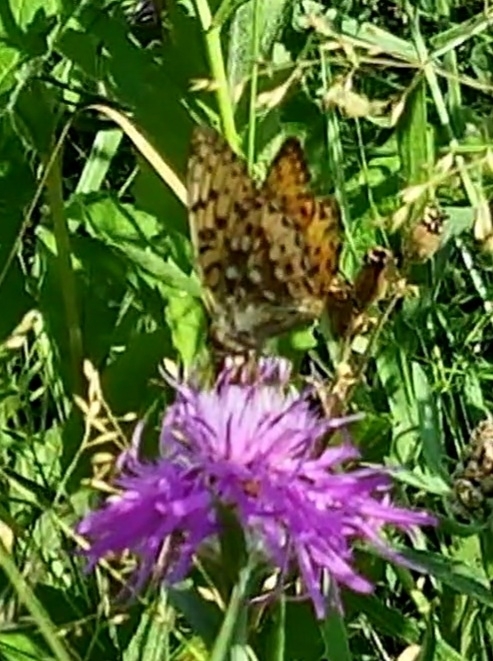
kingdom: Animalia
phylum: Arthropoda
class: Insecta
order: Lepidoptera
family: Nymphalidae
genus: Speyeria
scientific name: Speyeria aglaja
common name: Dark green fritillary
